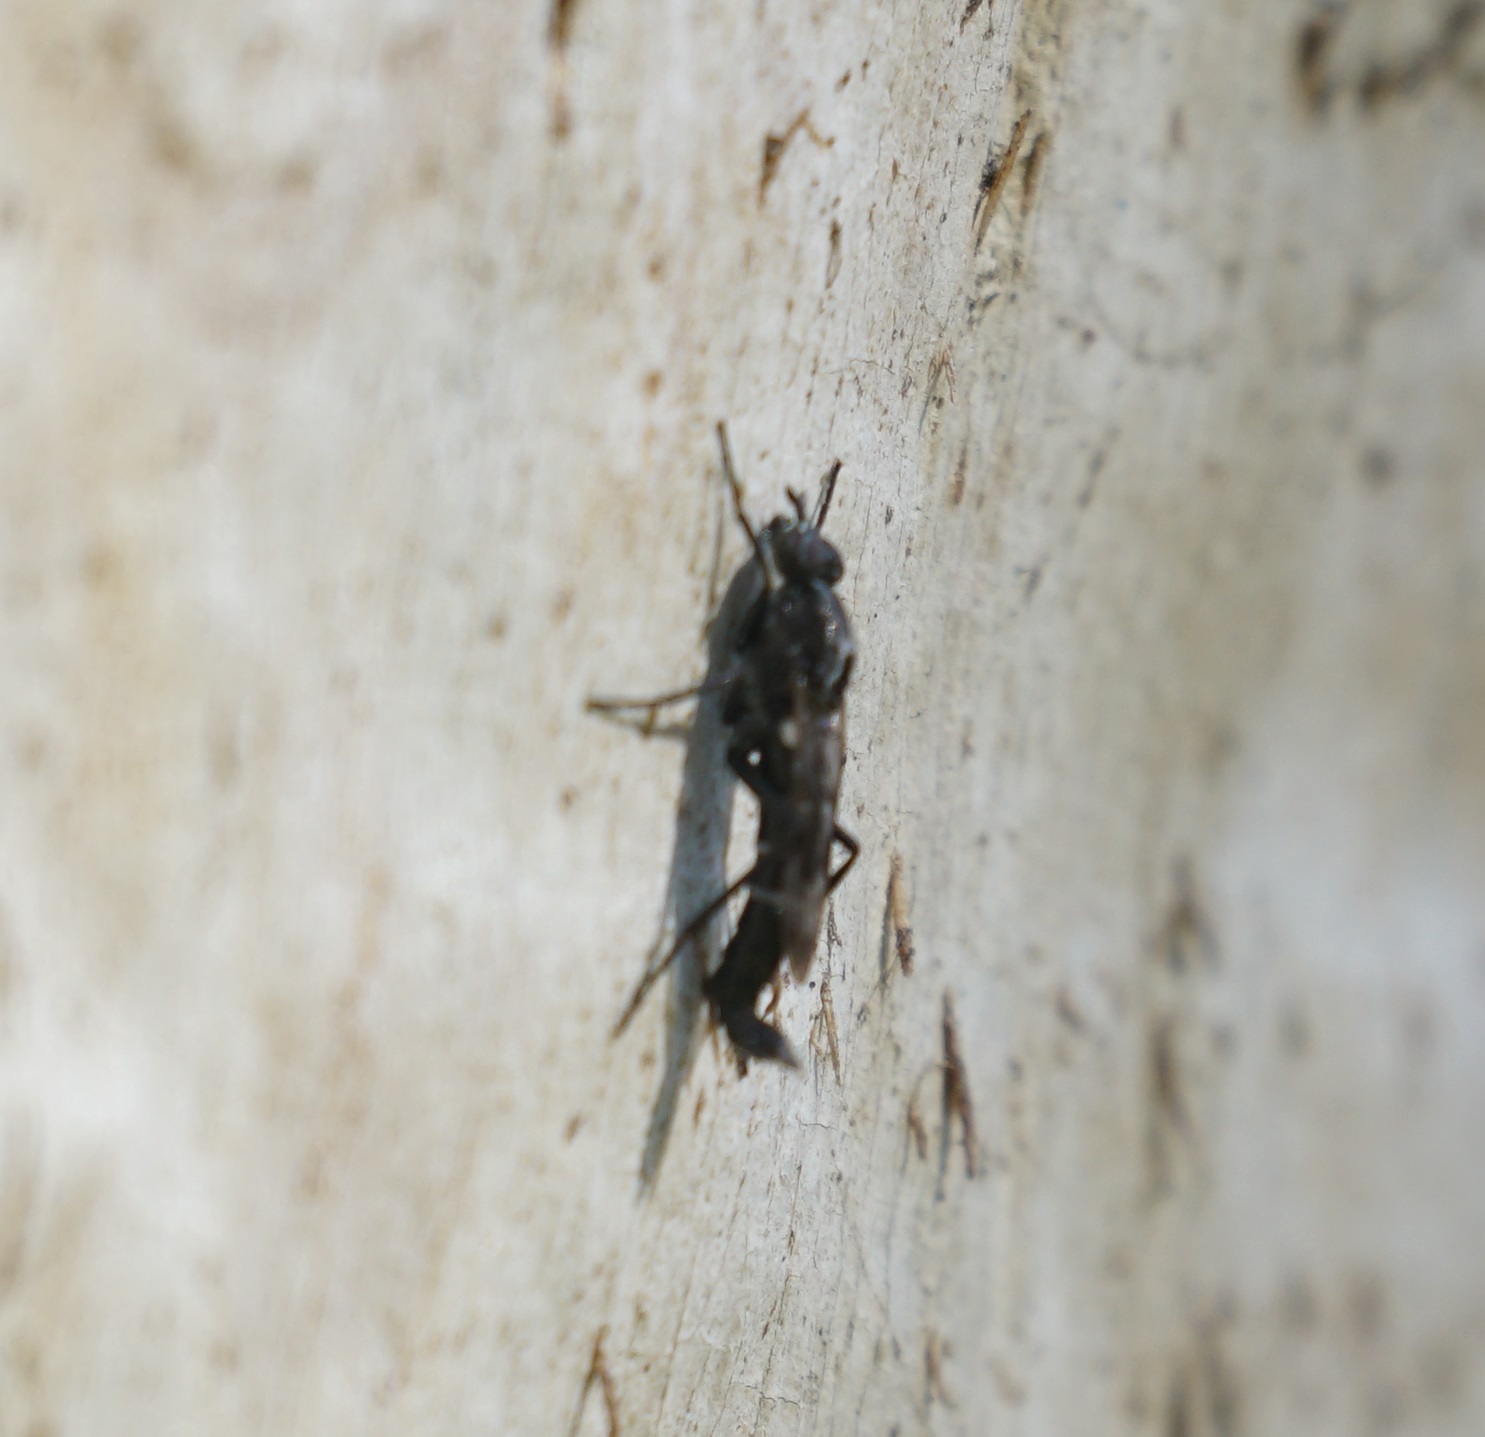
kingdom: Animalia
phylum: Arthropoda
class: Insecta
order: Diptera
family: Therevidae
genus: Laxotela
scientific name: Laxotela hauseri
